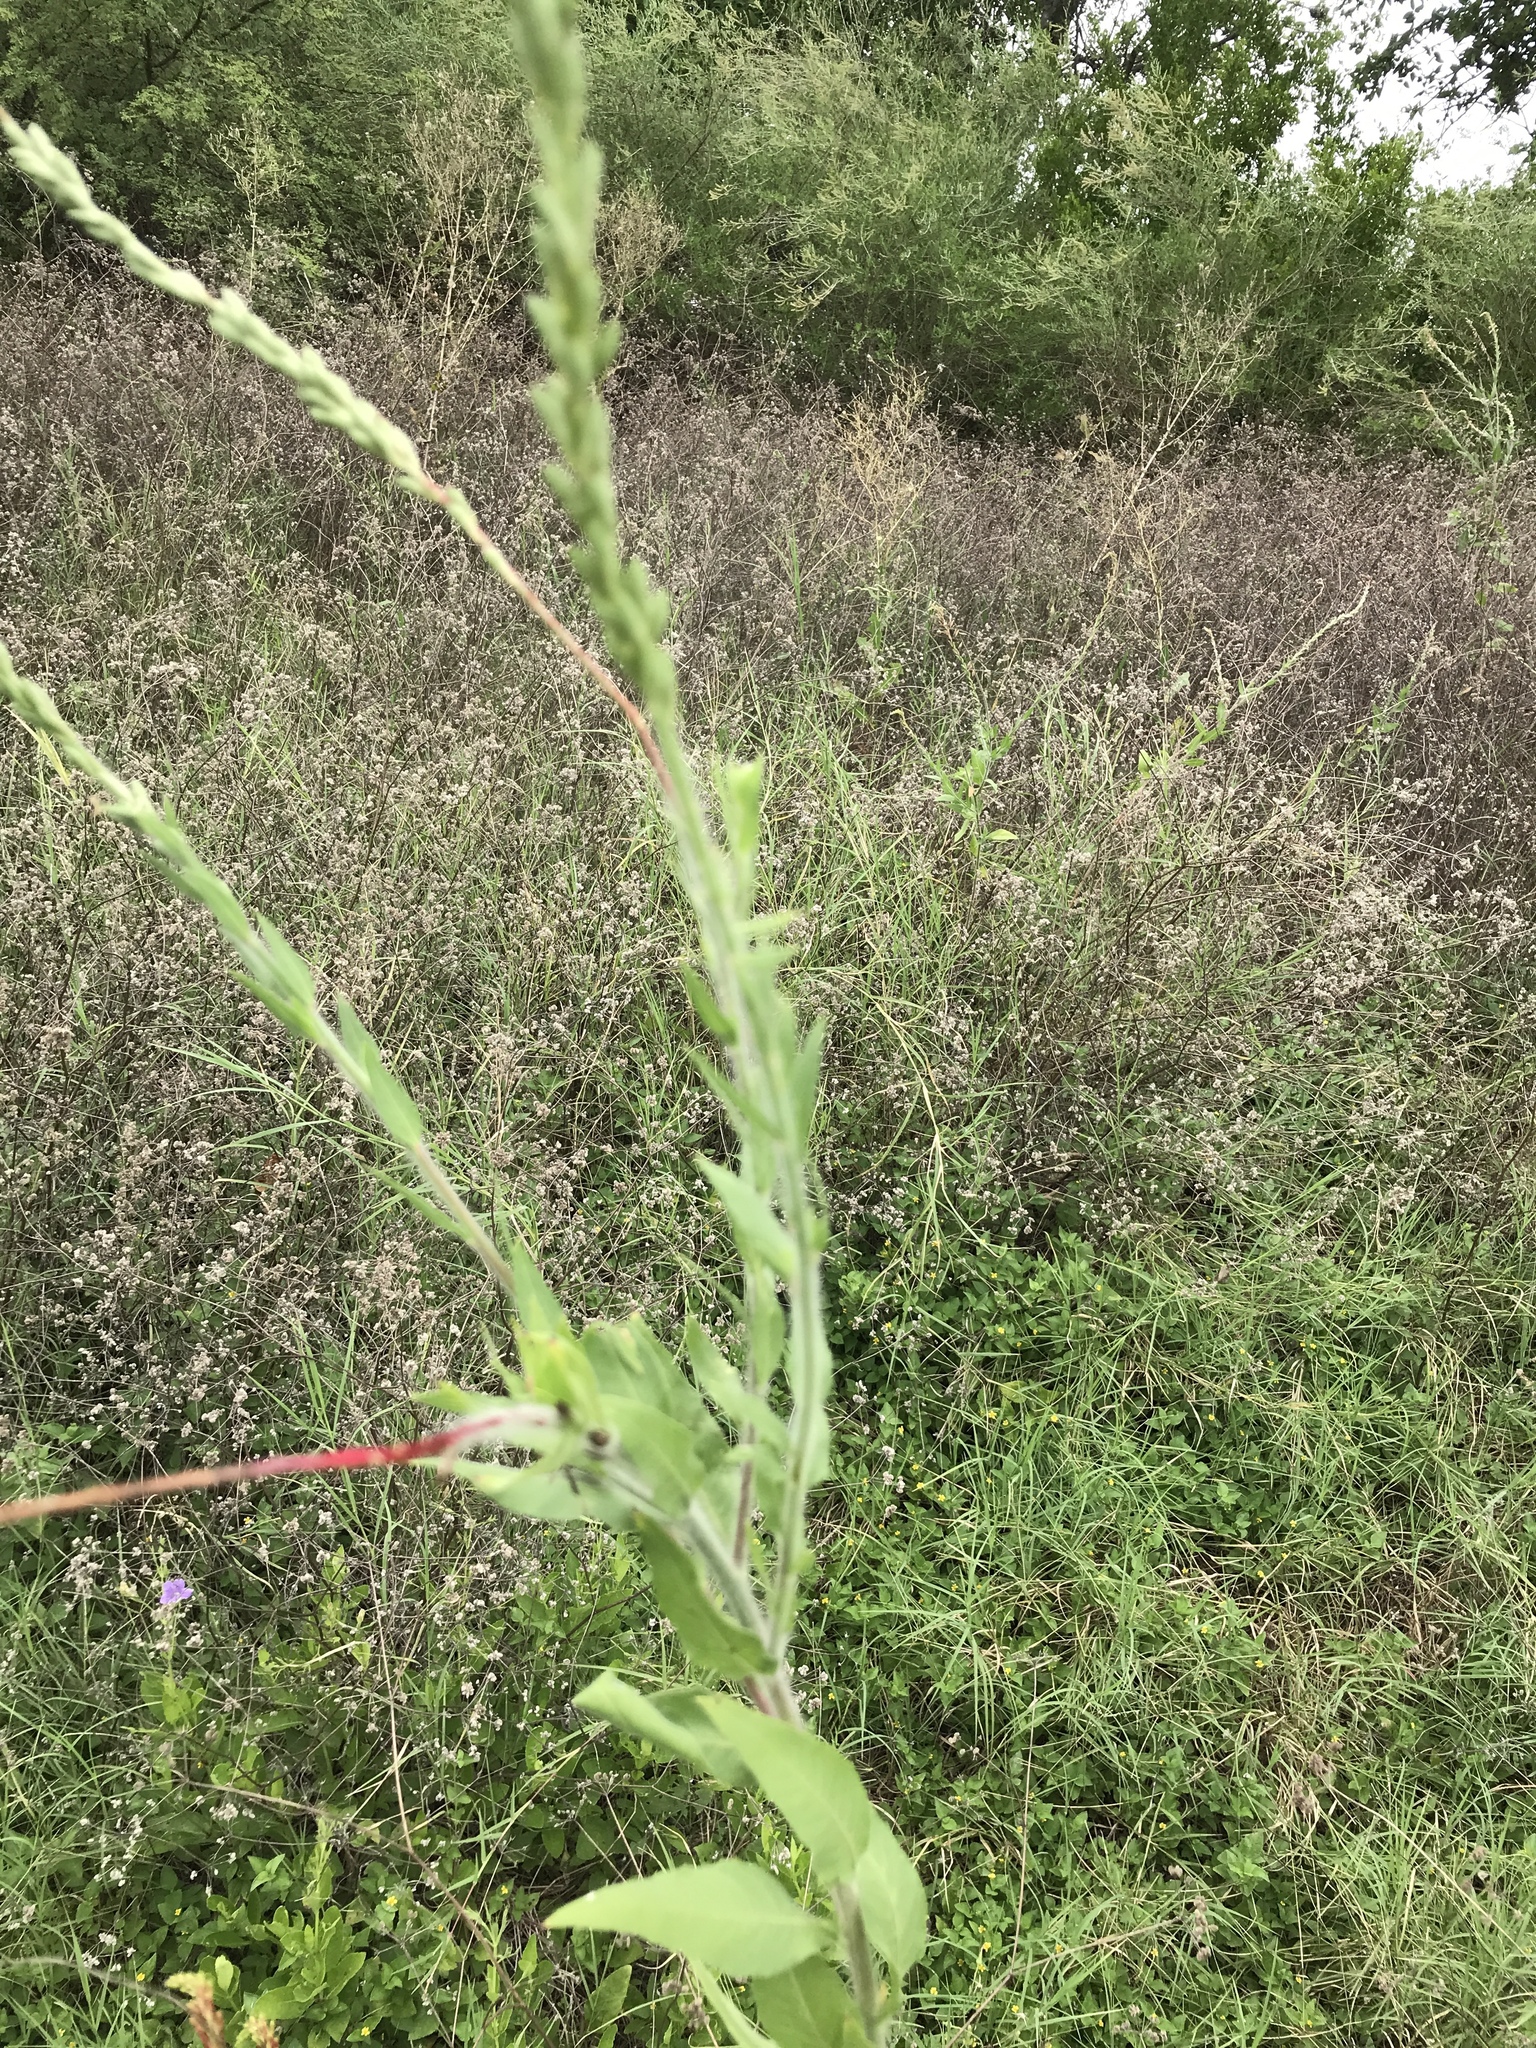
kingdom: Plantae
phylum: Tracheophyta
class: Magnoliopsida
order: Myrtales
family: Onagraceae
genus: Oenothera
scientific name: Oenothera curtiflora
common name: Velvetweed
